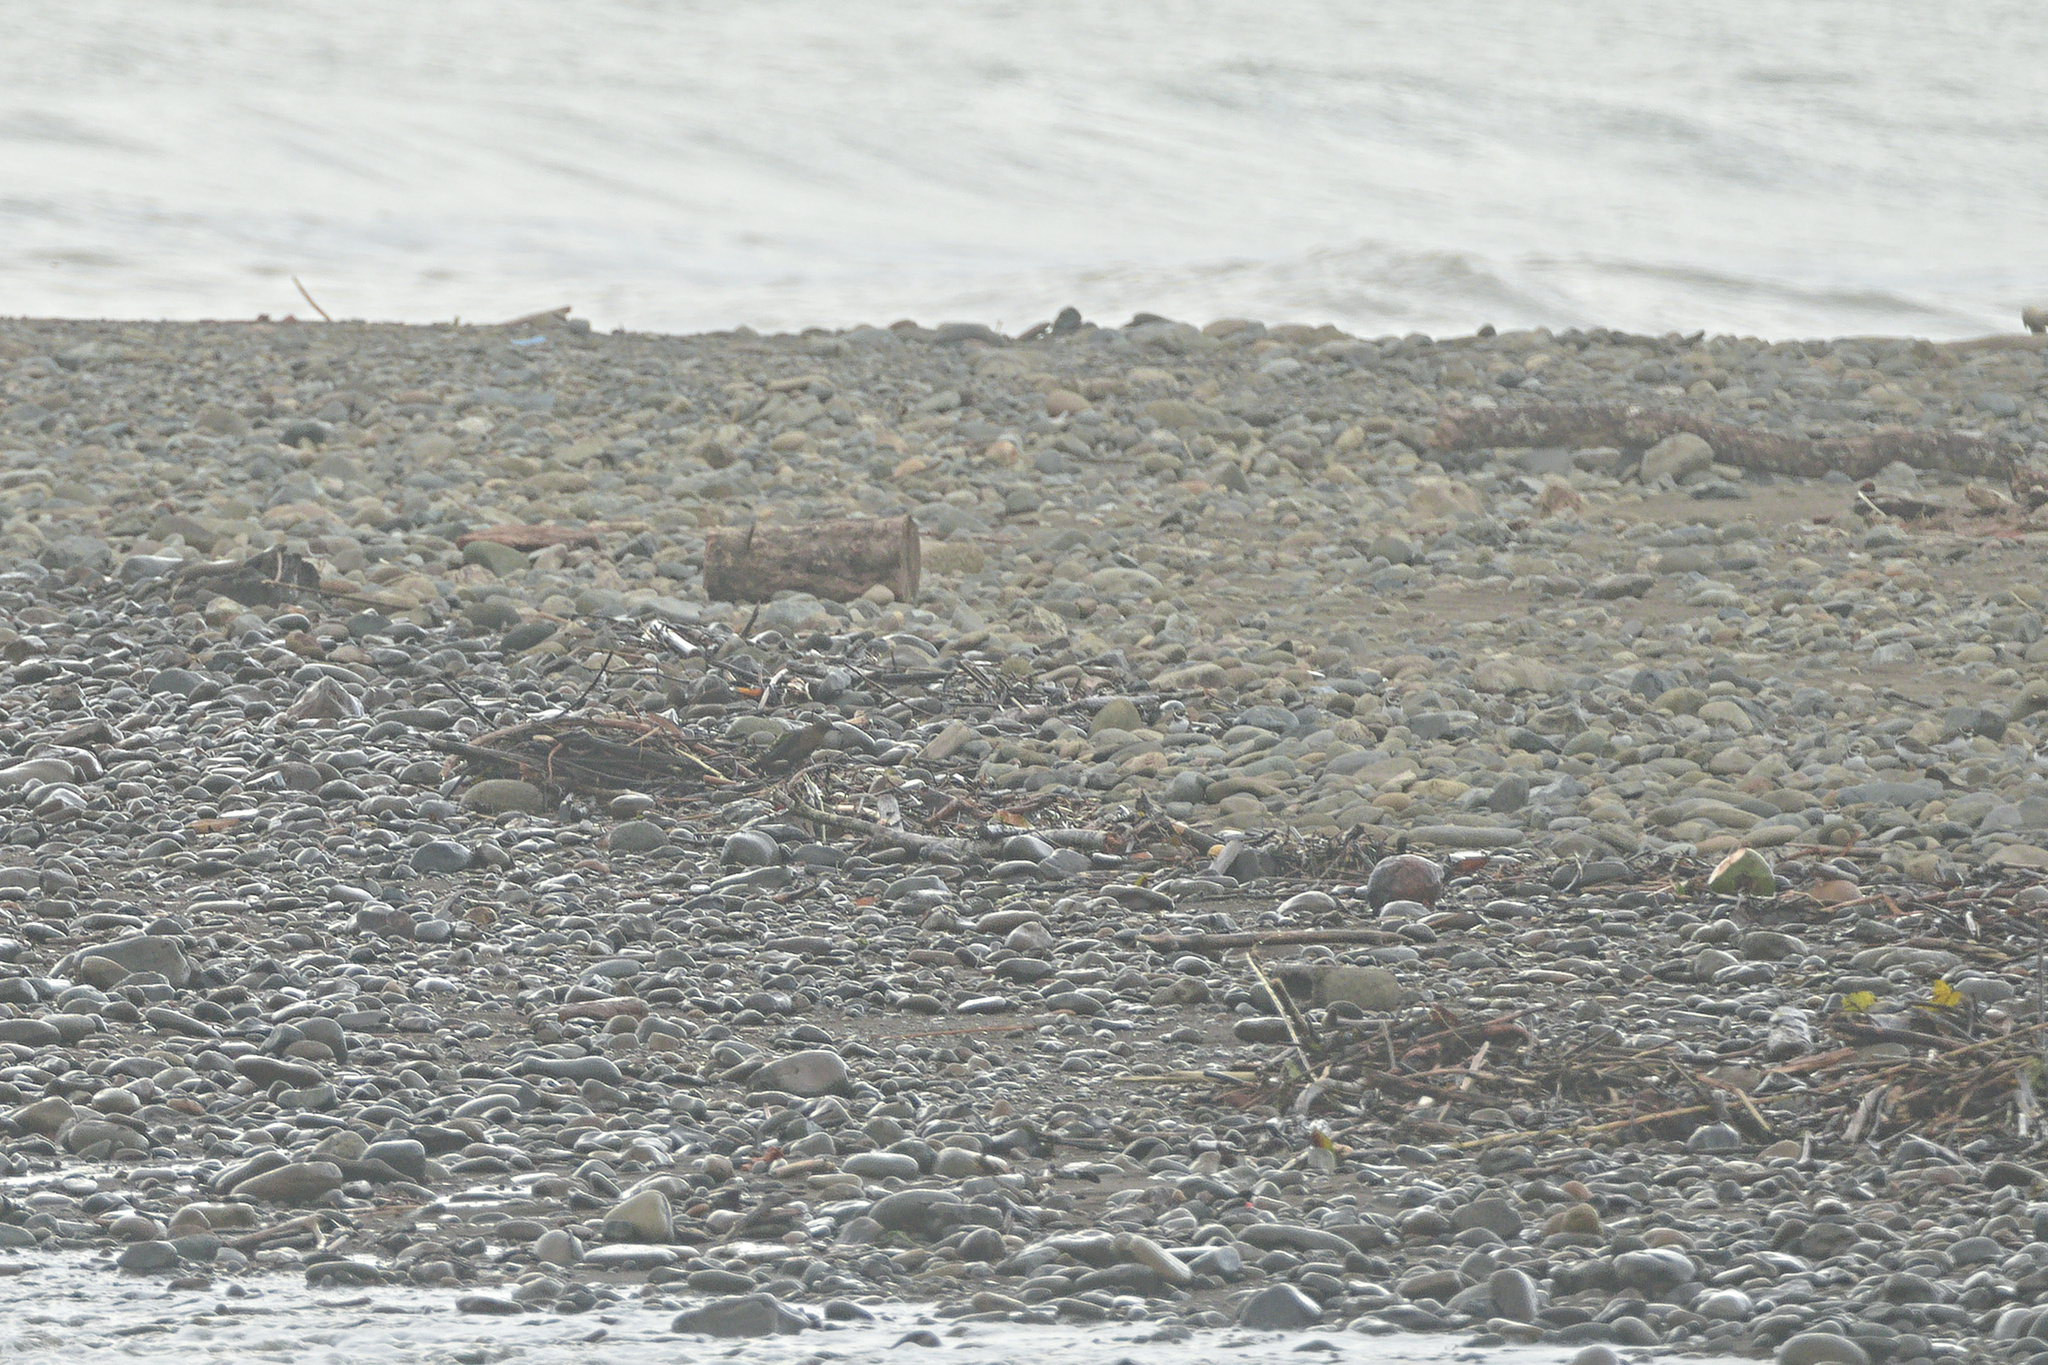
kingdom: Animalia
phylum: Chordata
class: Aves
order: Charadriiformes
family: Charadriidae
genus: Charadrius
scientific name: Charadrius semipalmatus
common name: Semipalmated plover
